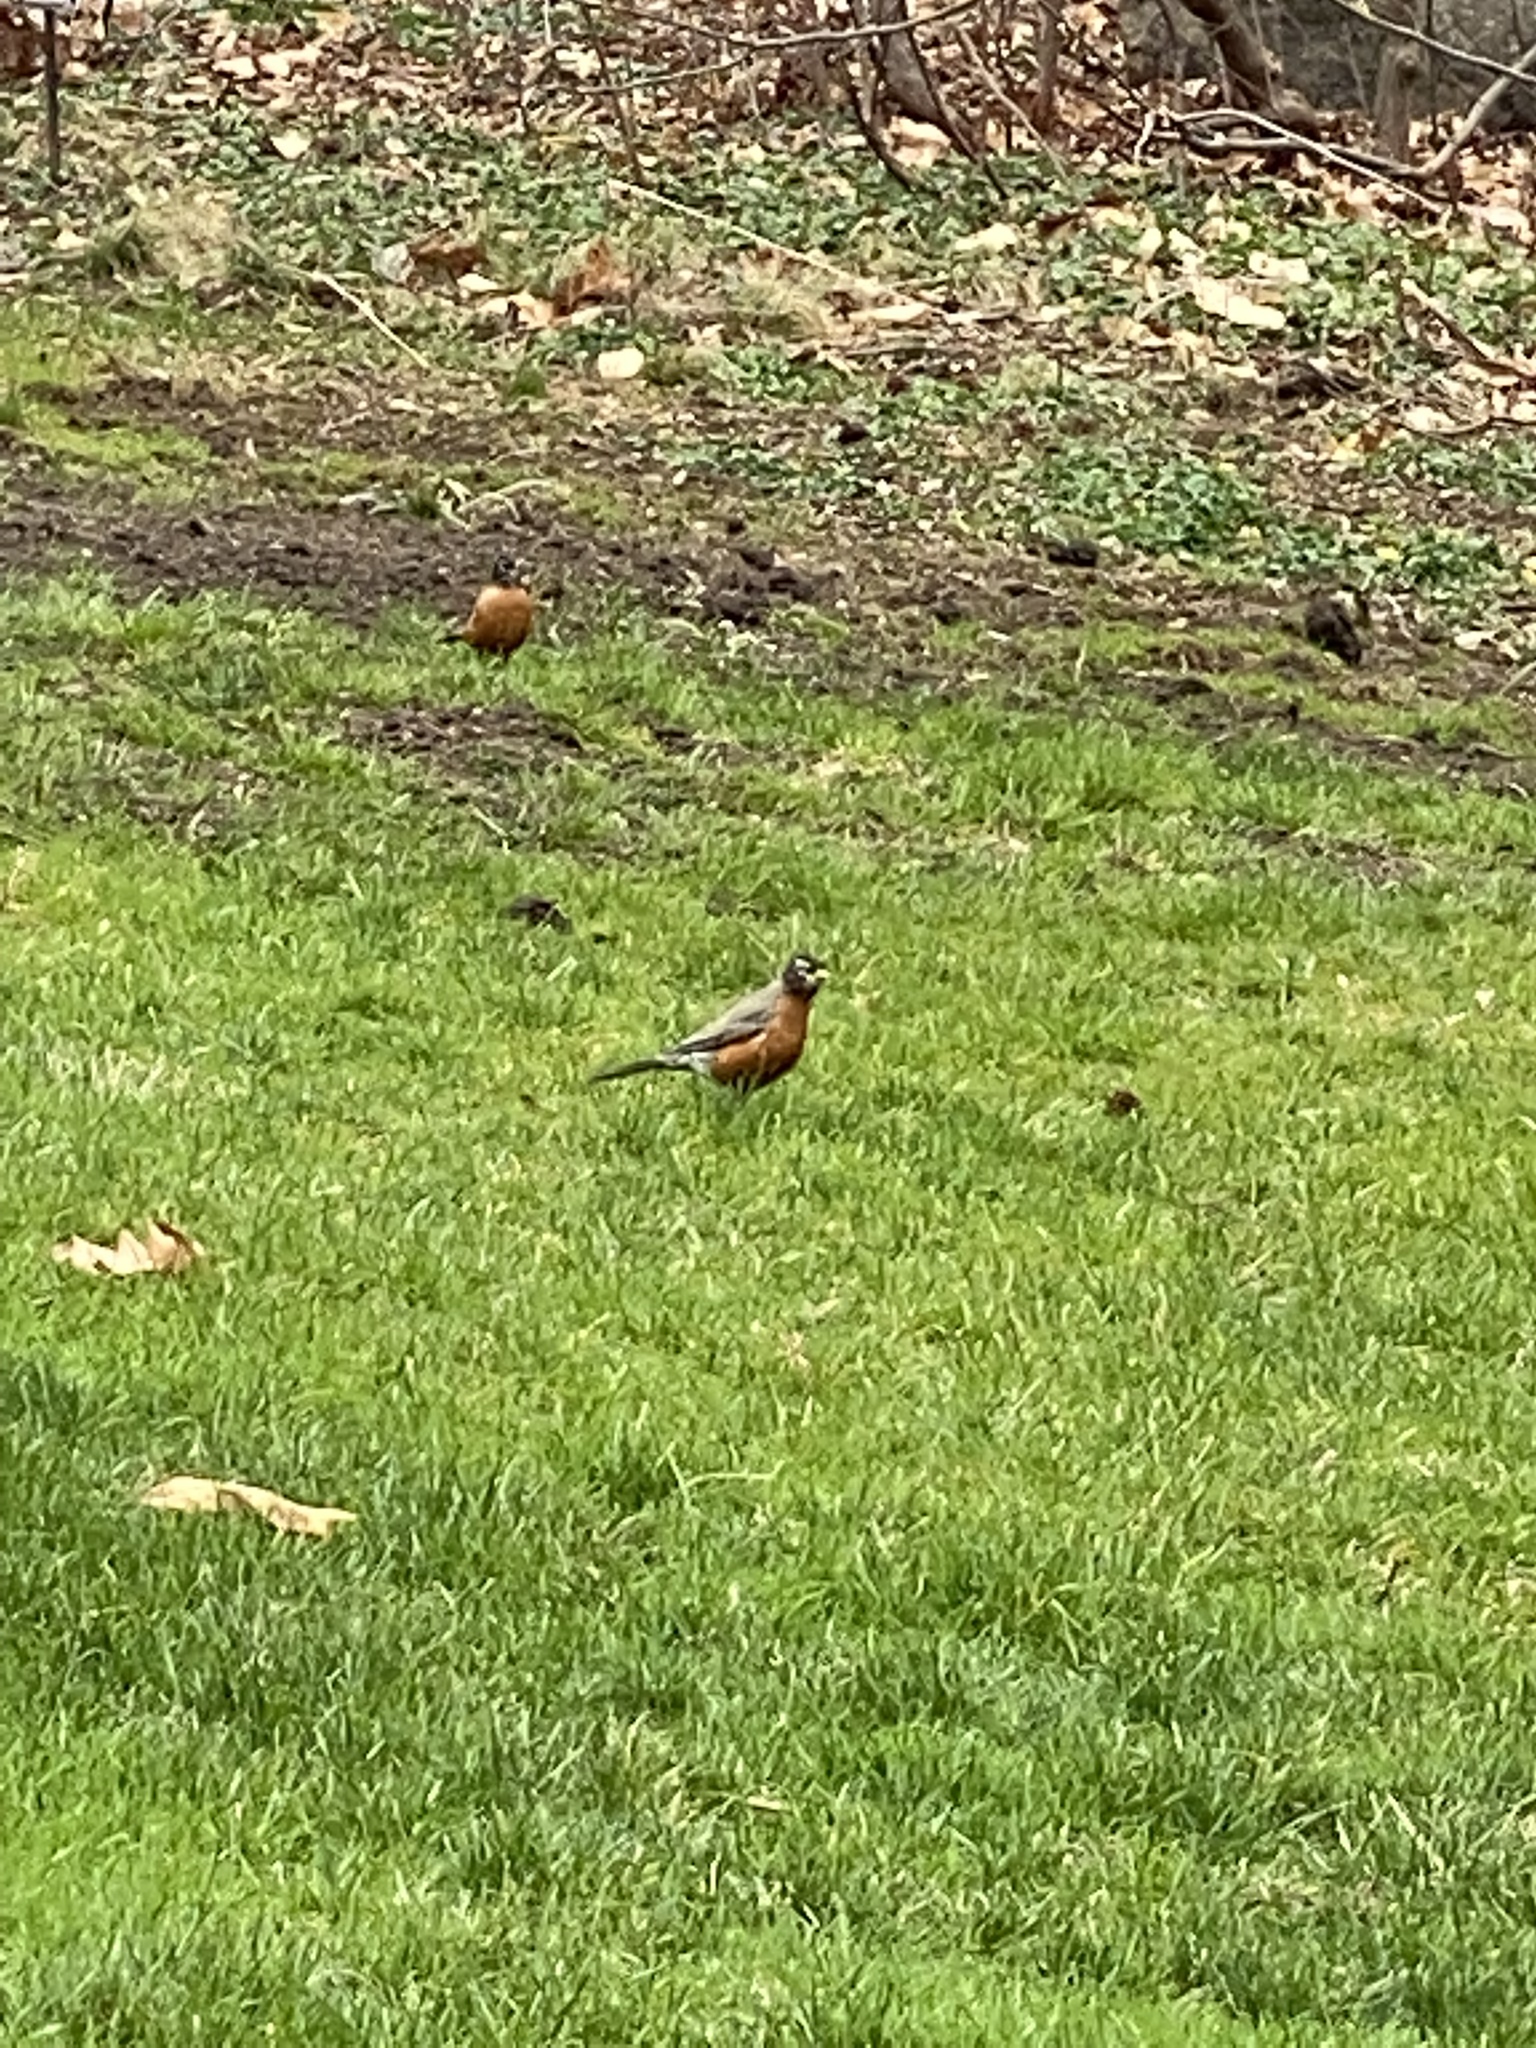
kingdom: Animalia
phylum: Chordata
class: Aves
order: Passeriformes
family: Turdidae
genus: Turdus
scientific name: Turdus migratorius
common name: American robin
